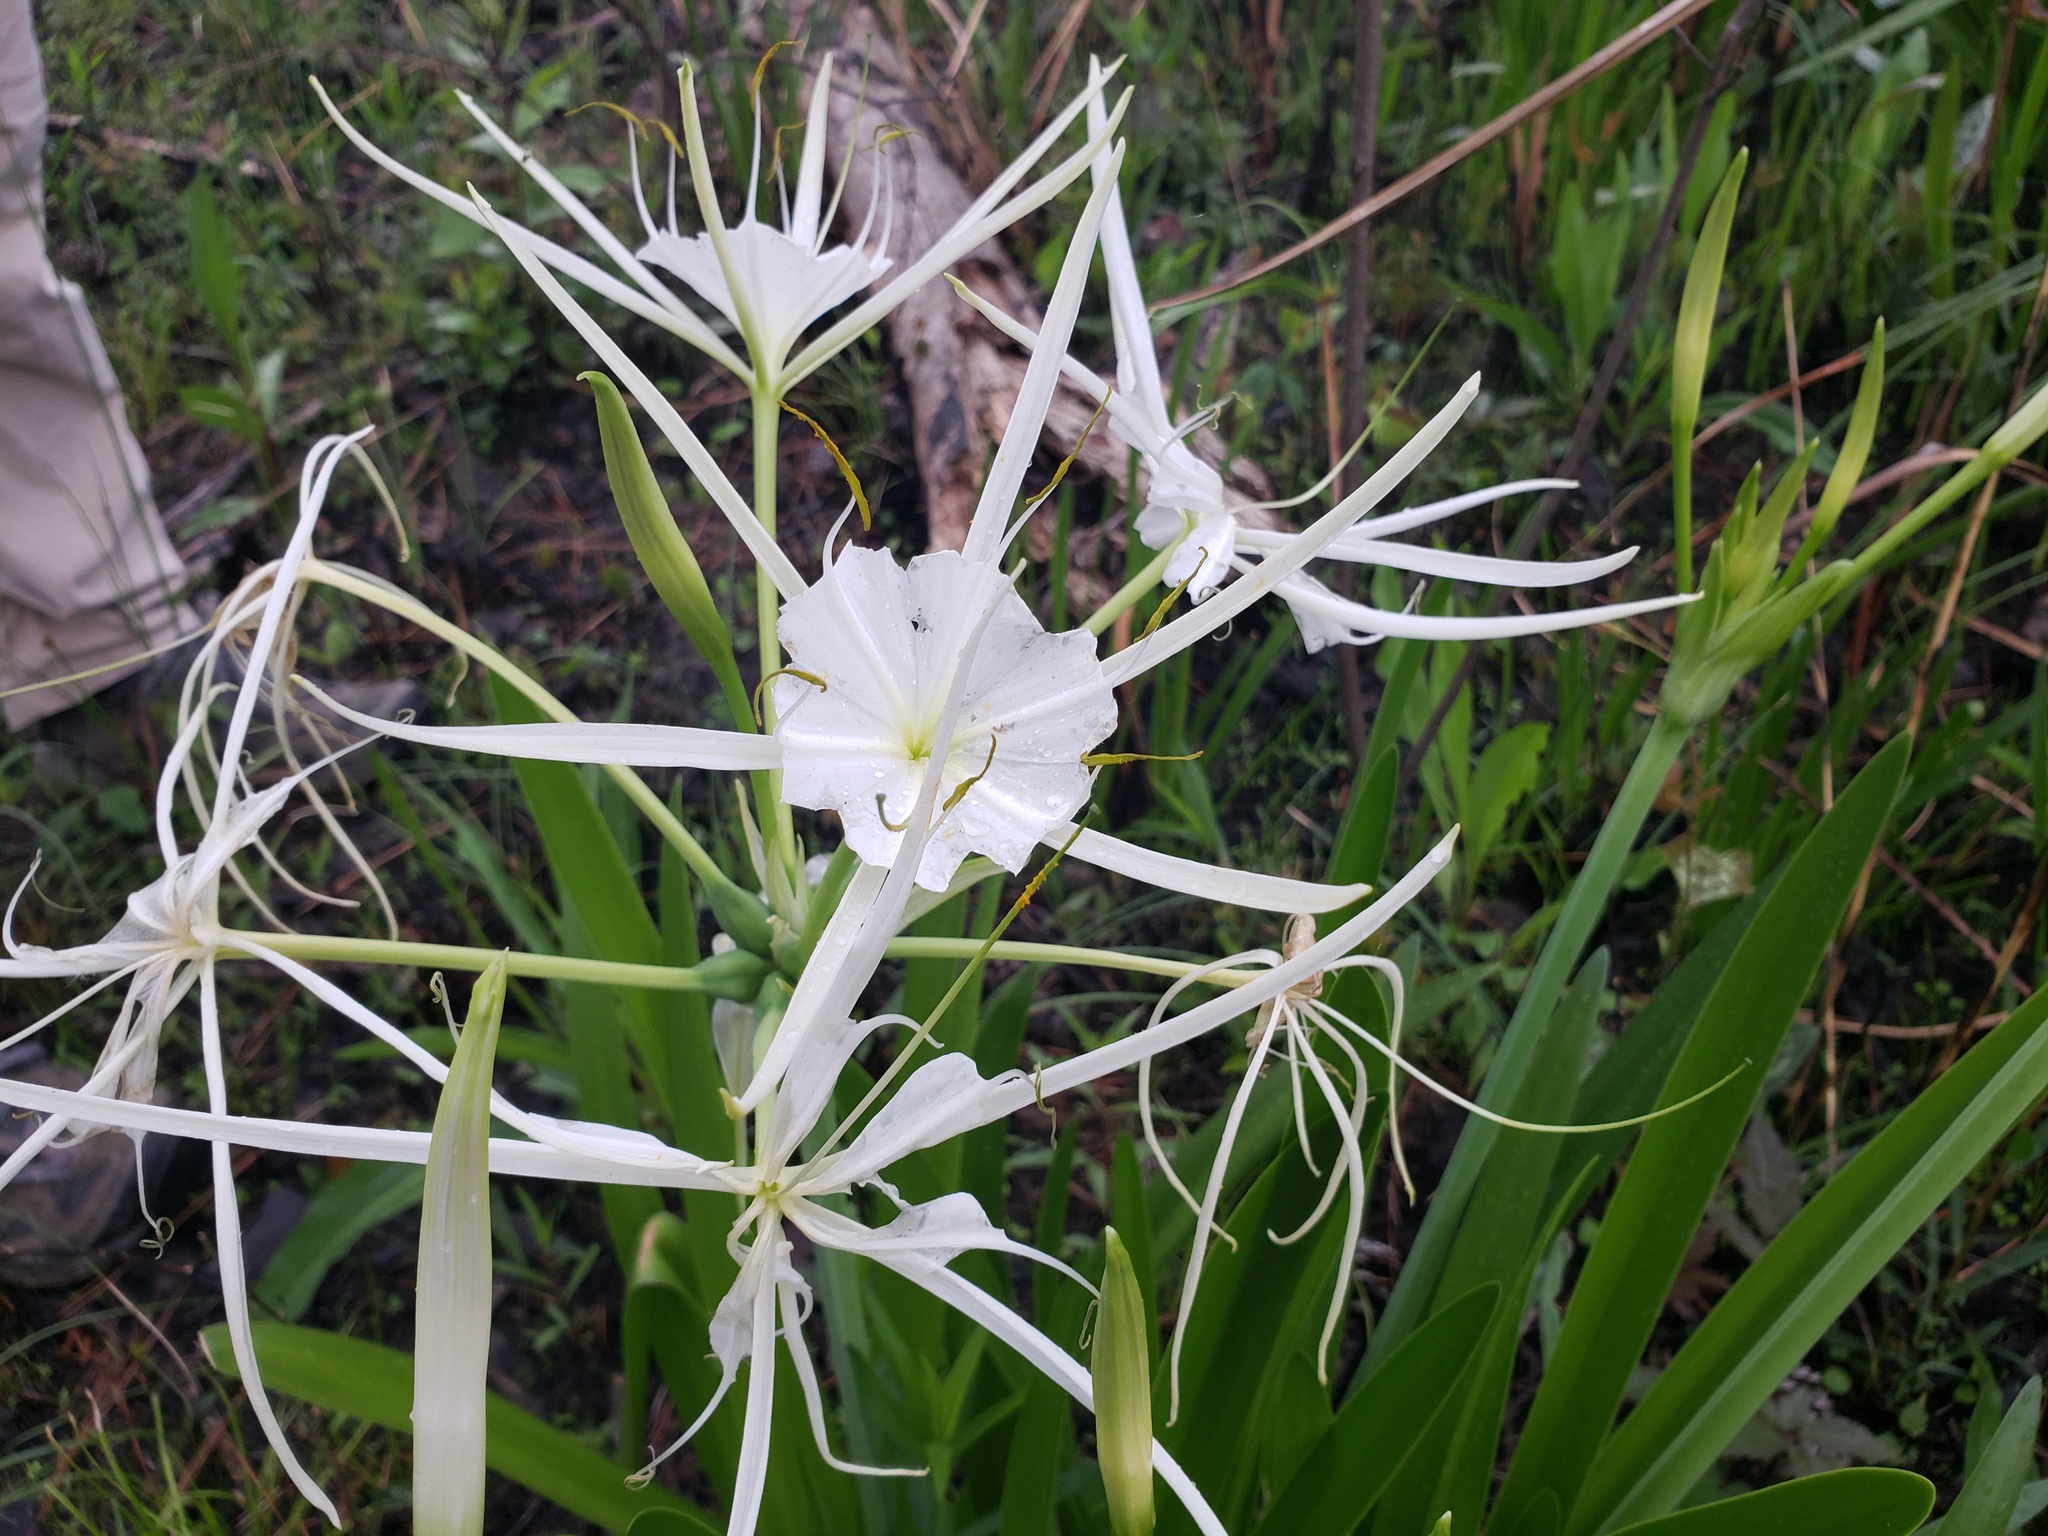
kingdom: Plantae
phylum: Tracheophyta
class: Liliopsida
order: Asparagales
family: Amaryllidaceae
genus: Hymenocallis
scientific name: Hymenocallis liriosme
